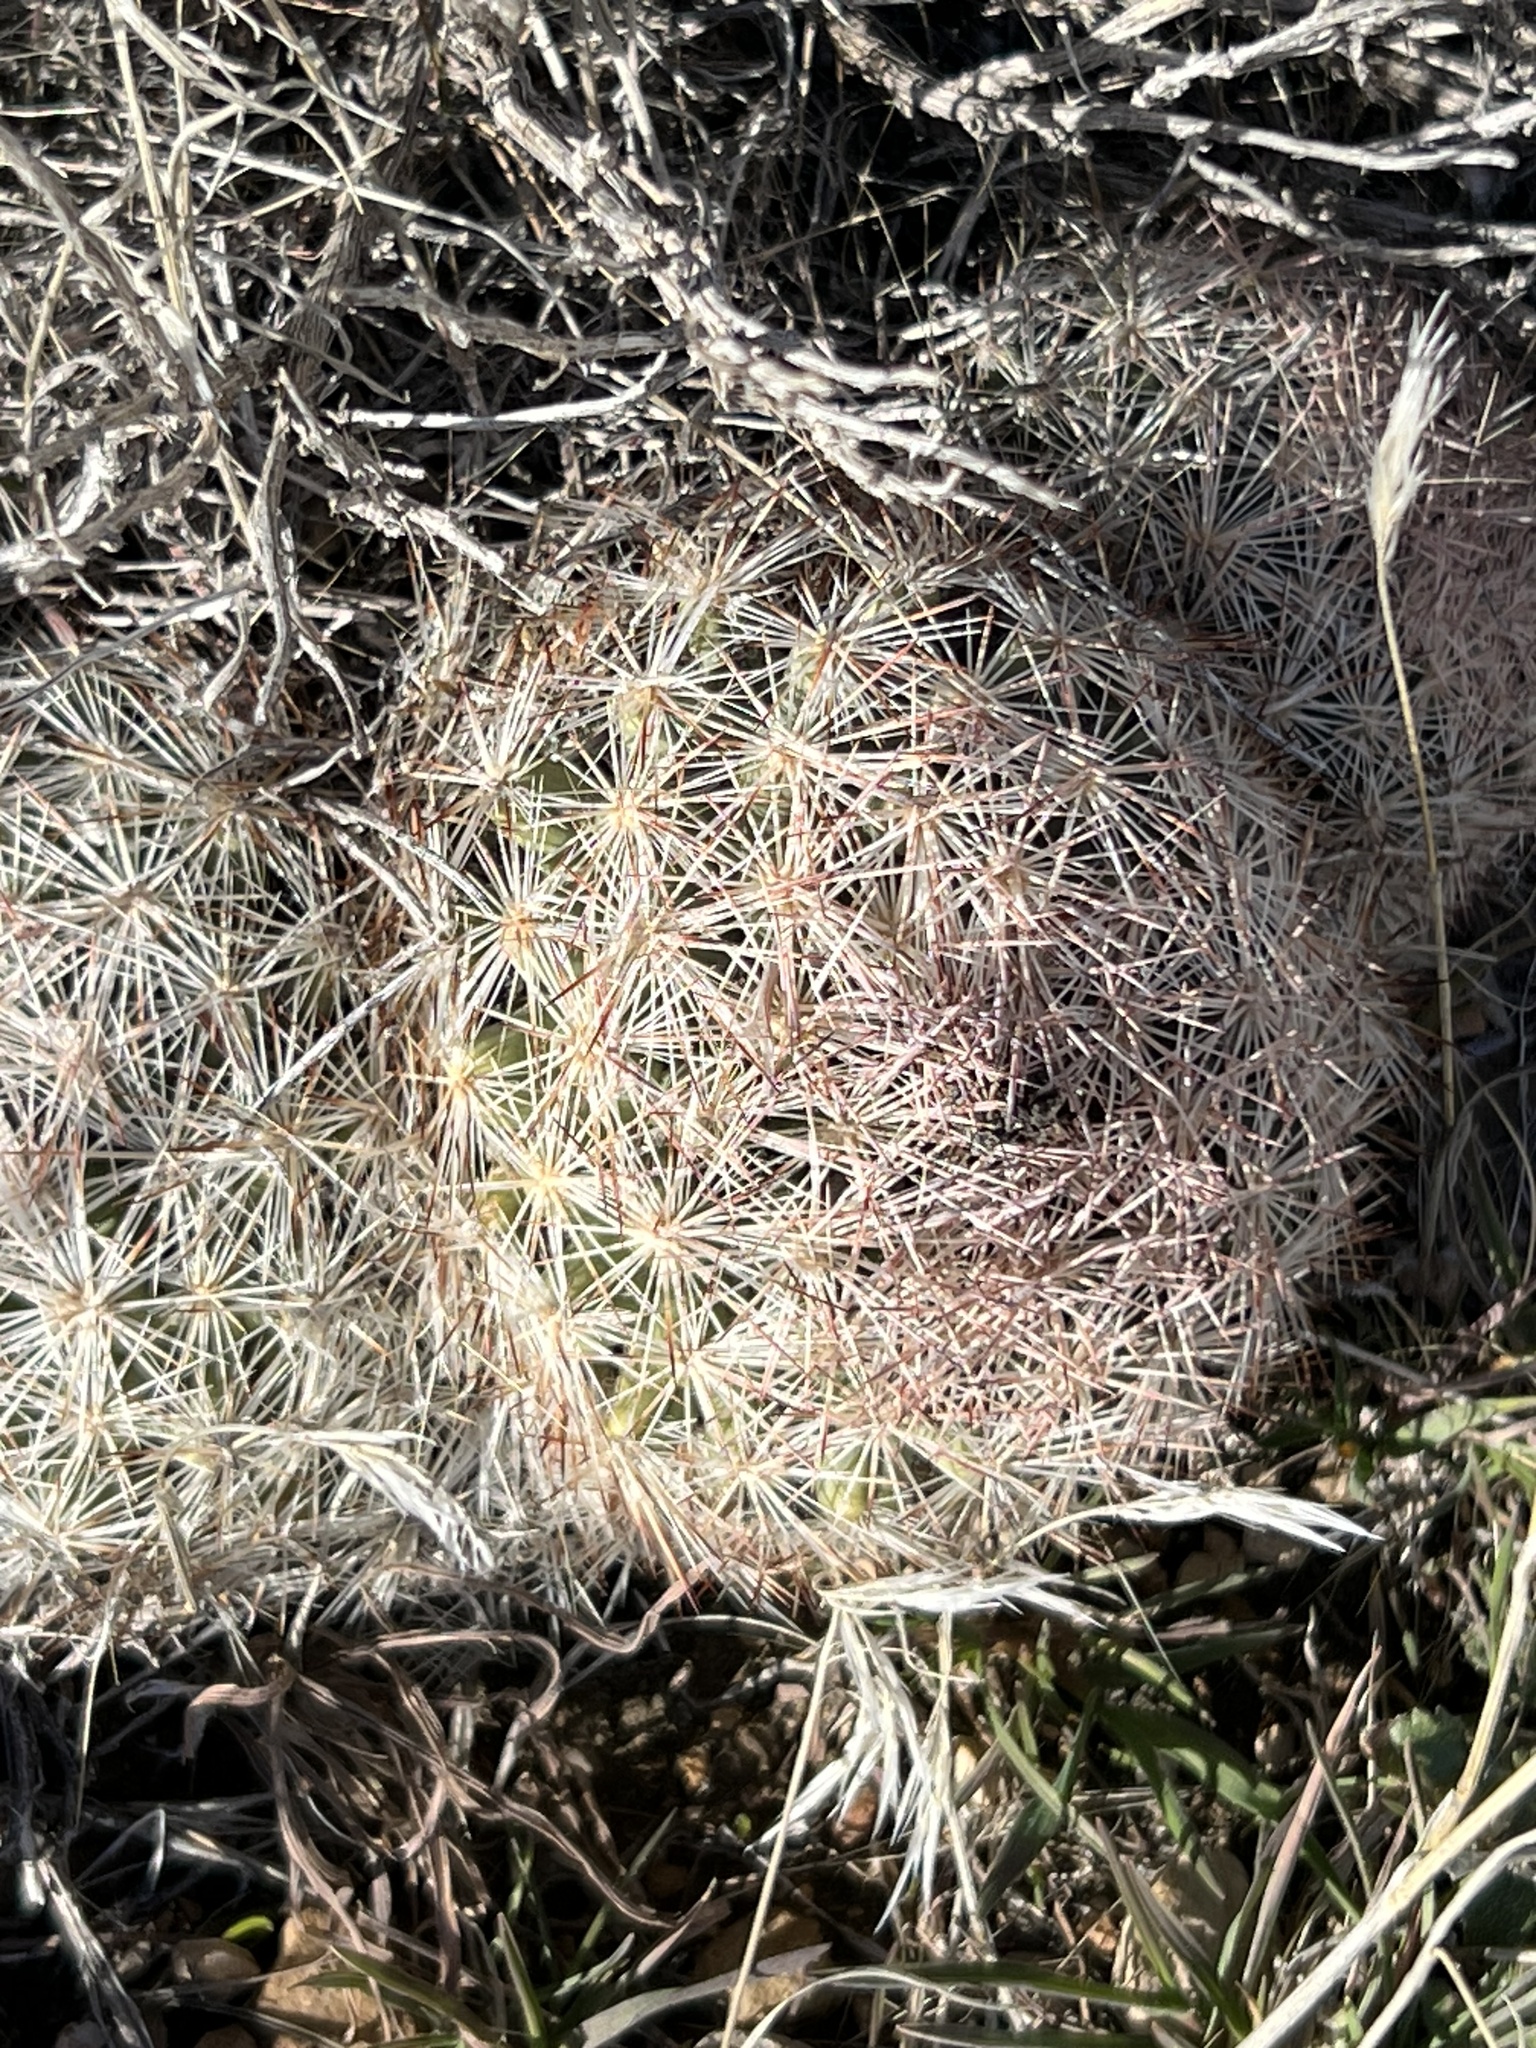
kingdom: Plantae
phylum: Tracheophyta
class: Magnoliopsida
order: Caryophyllales
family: Cactaceae
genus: Pelecyphora
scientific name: Pelecyphora dasyacantha
